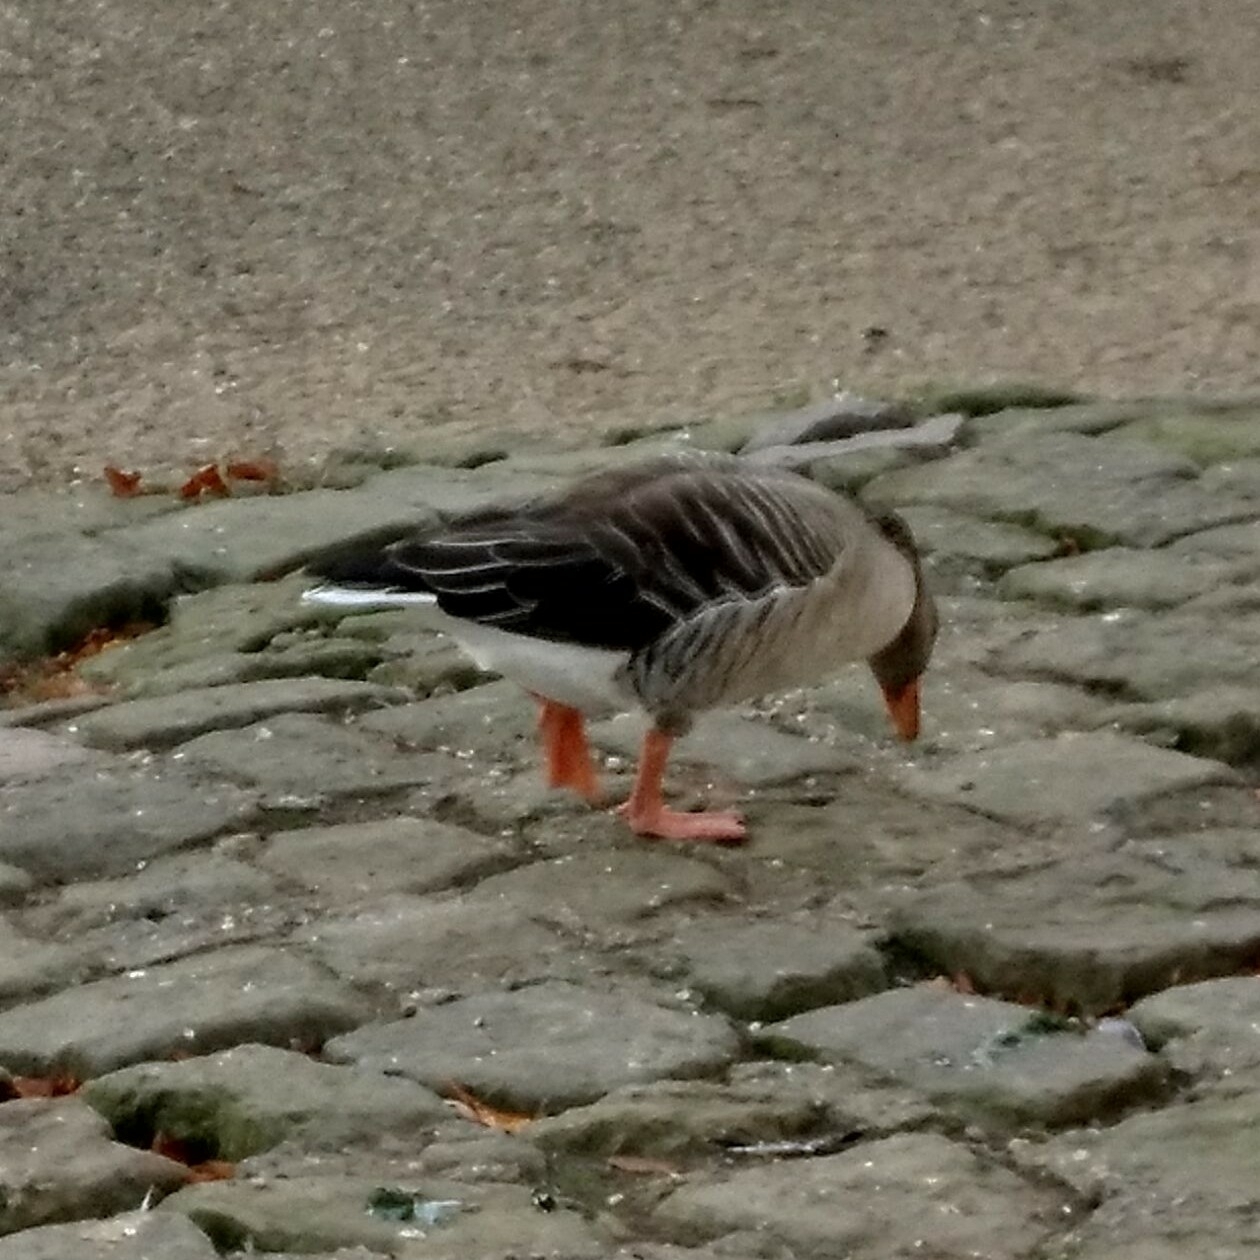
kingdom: Animalia
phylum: Chordata
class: Aves
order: Anseriformes
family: Anatidae
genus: Anser
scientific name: Anser anser
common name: Greylag goose
